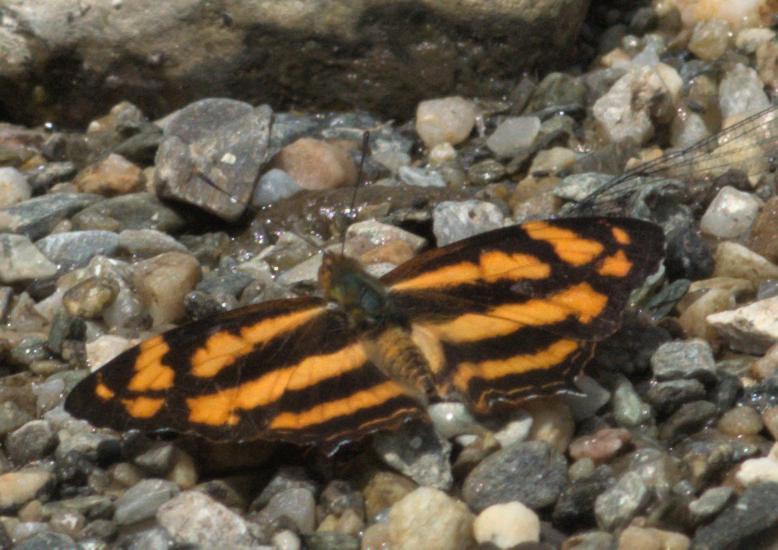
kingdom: Animalia
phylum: Arthropoda
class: Insecta
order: Lepidoptera
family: Nymphalidae
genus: Symbrenthia
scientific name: Symbrenthia hypselis
